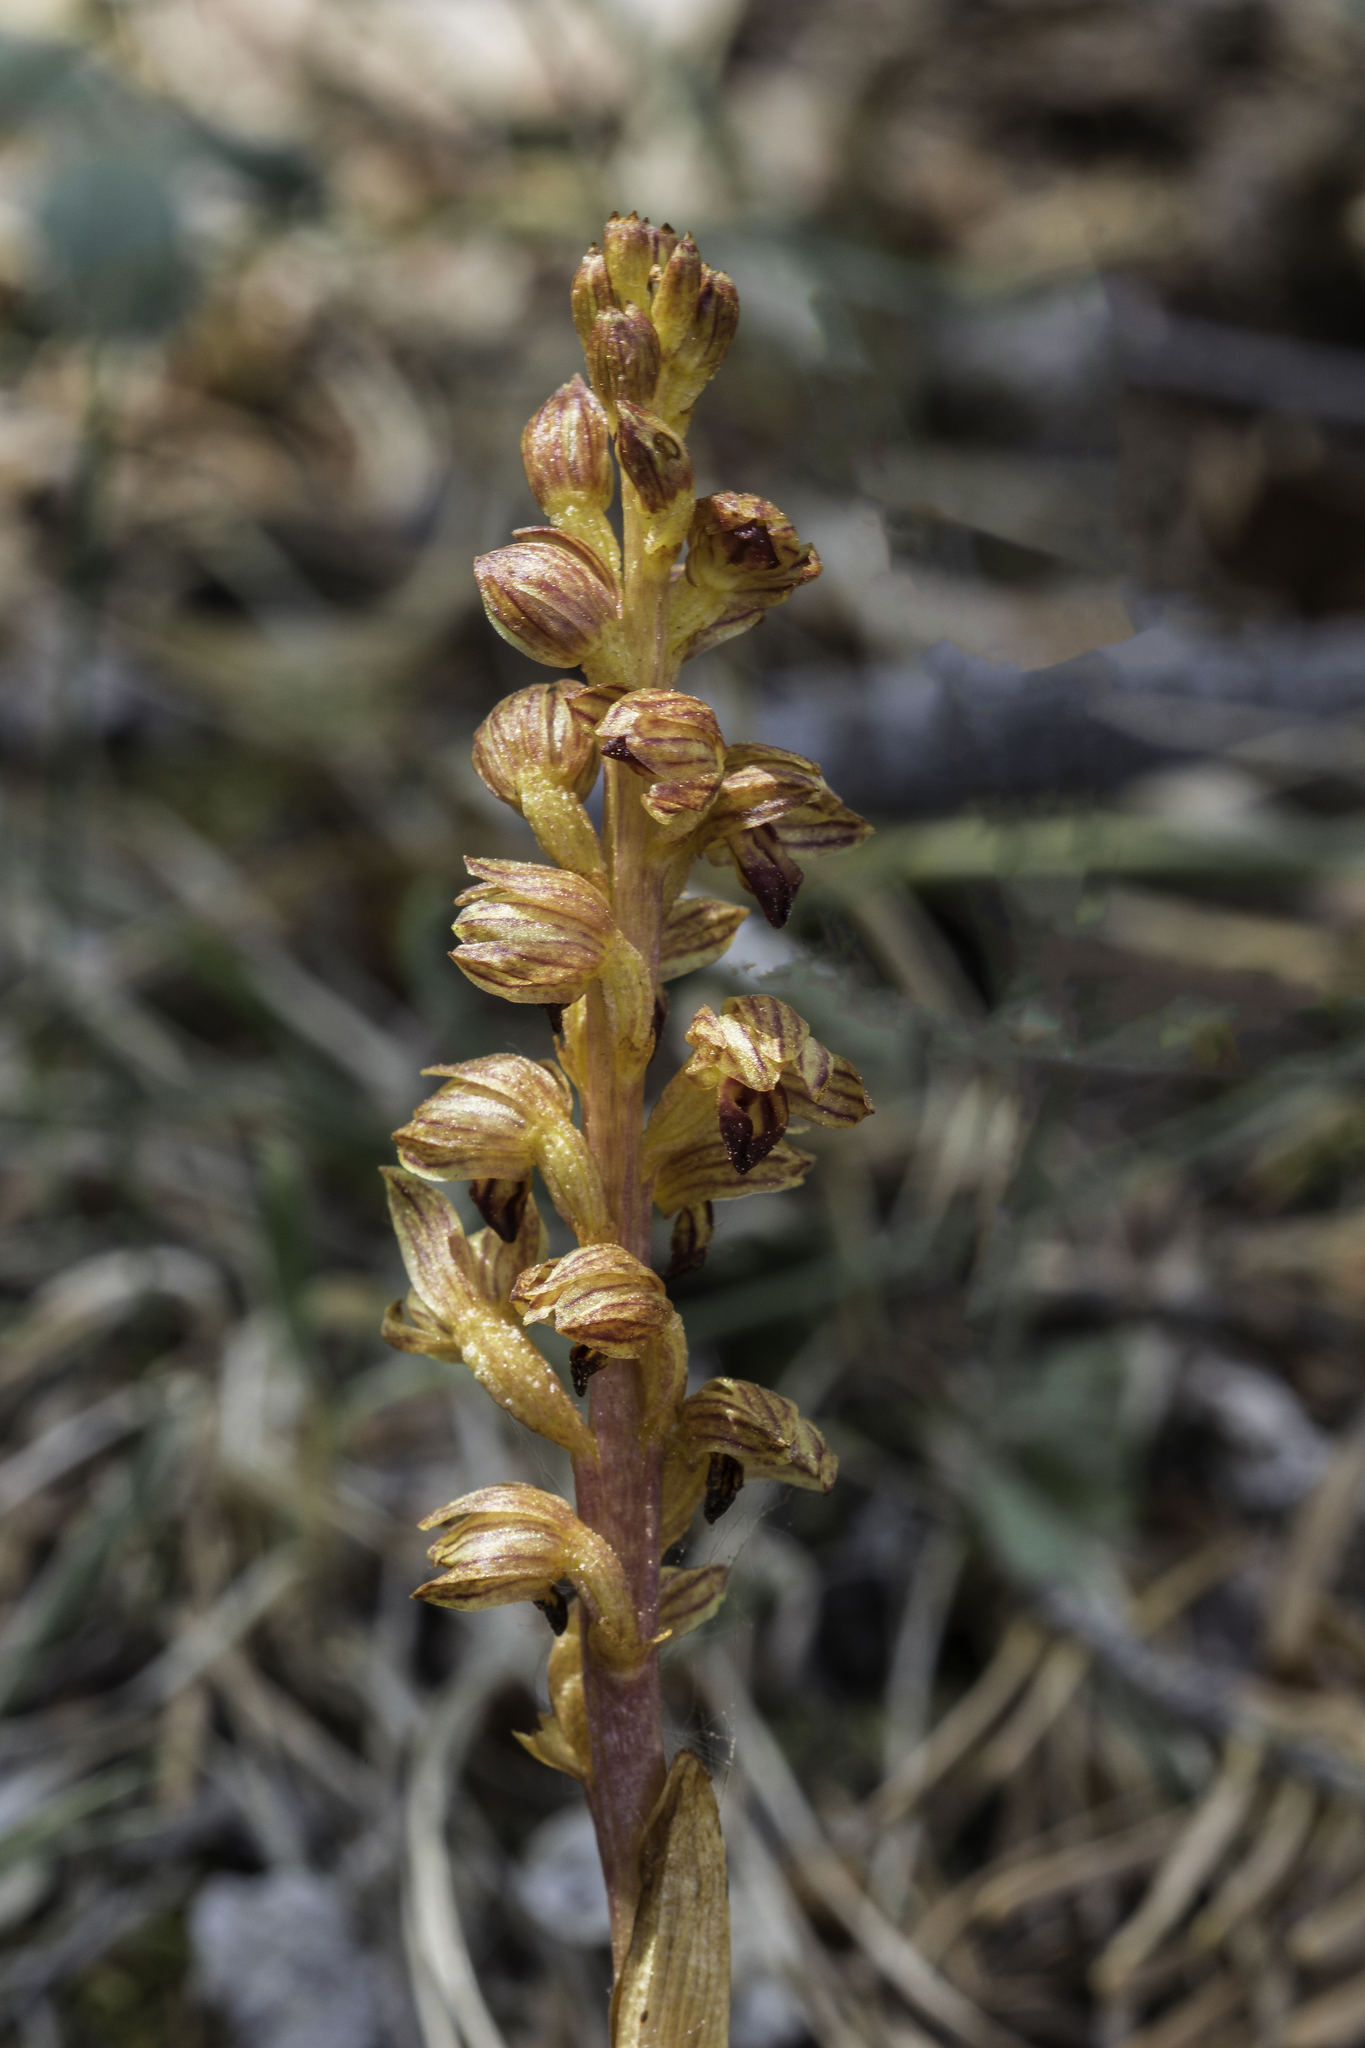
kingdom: Plantae
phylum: Tracheophyta
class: Liliopsida
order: Asparagales
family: Orchidaceae
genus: Corallorhiza
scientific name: Corallorhiza striata
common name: Hooded coralroot
